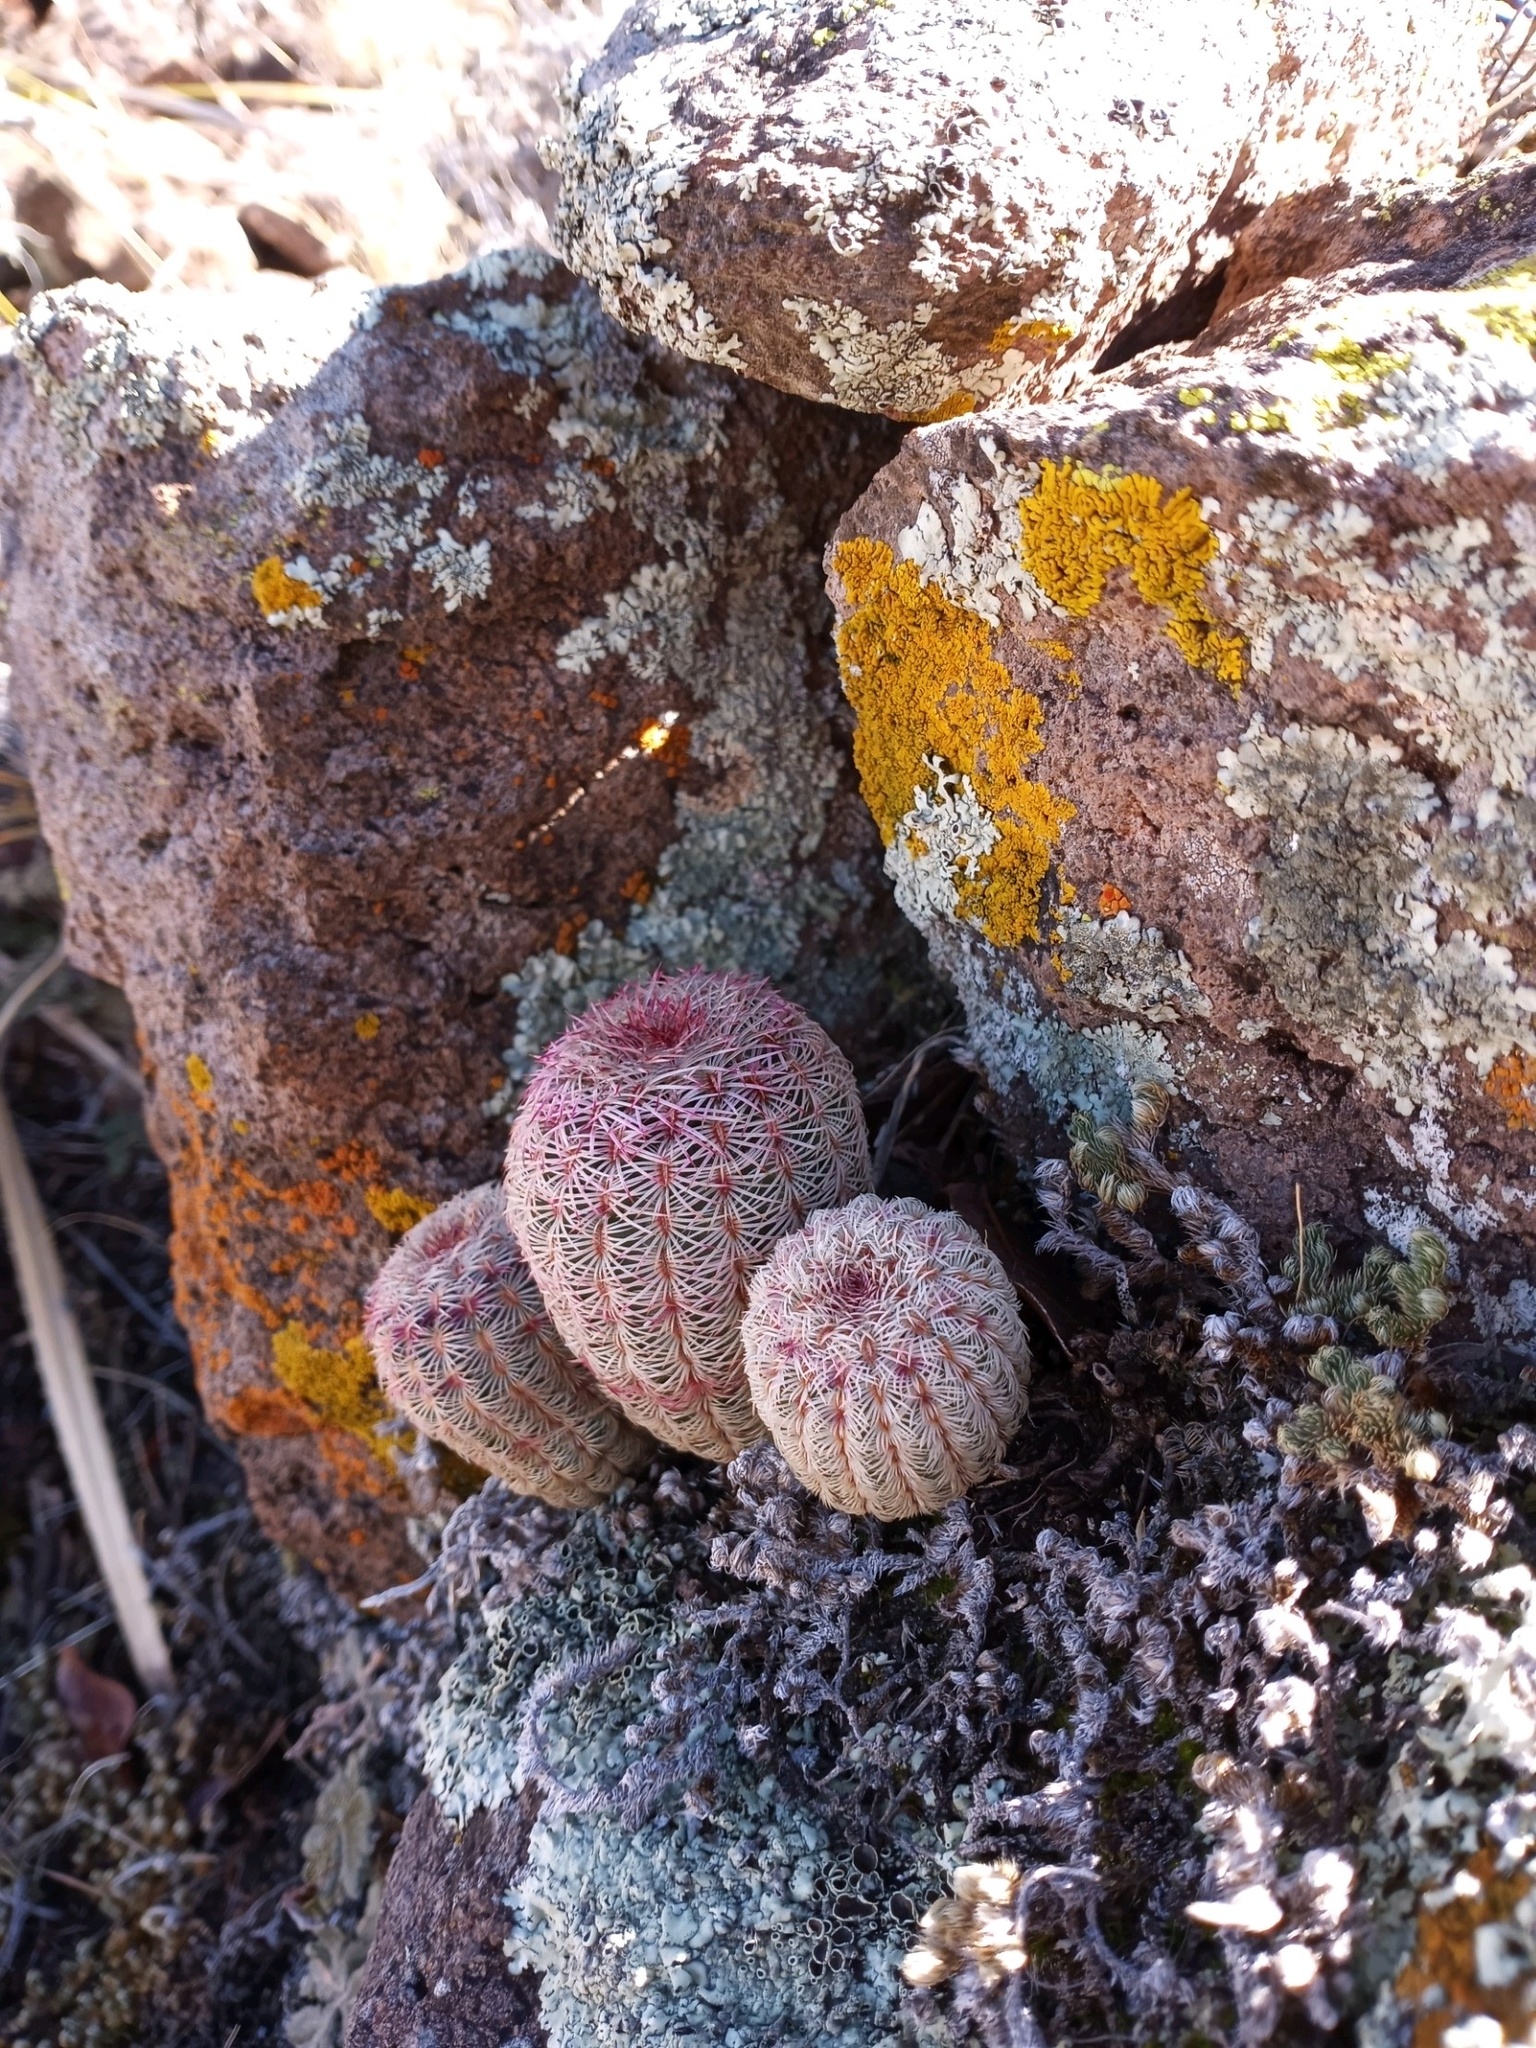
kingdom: Plantae
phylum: Tracheophyta
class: Magnoliopsida
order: Caryophyllales
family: Cactaceae
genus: Echinocereus
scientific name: Echinocereus rigidissimus
